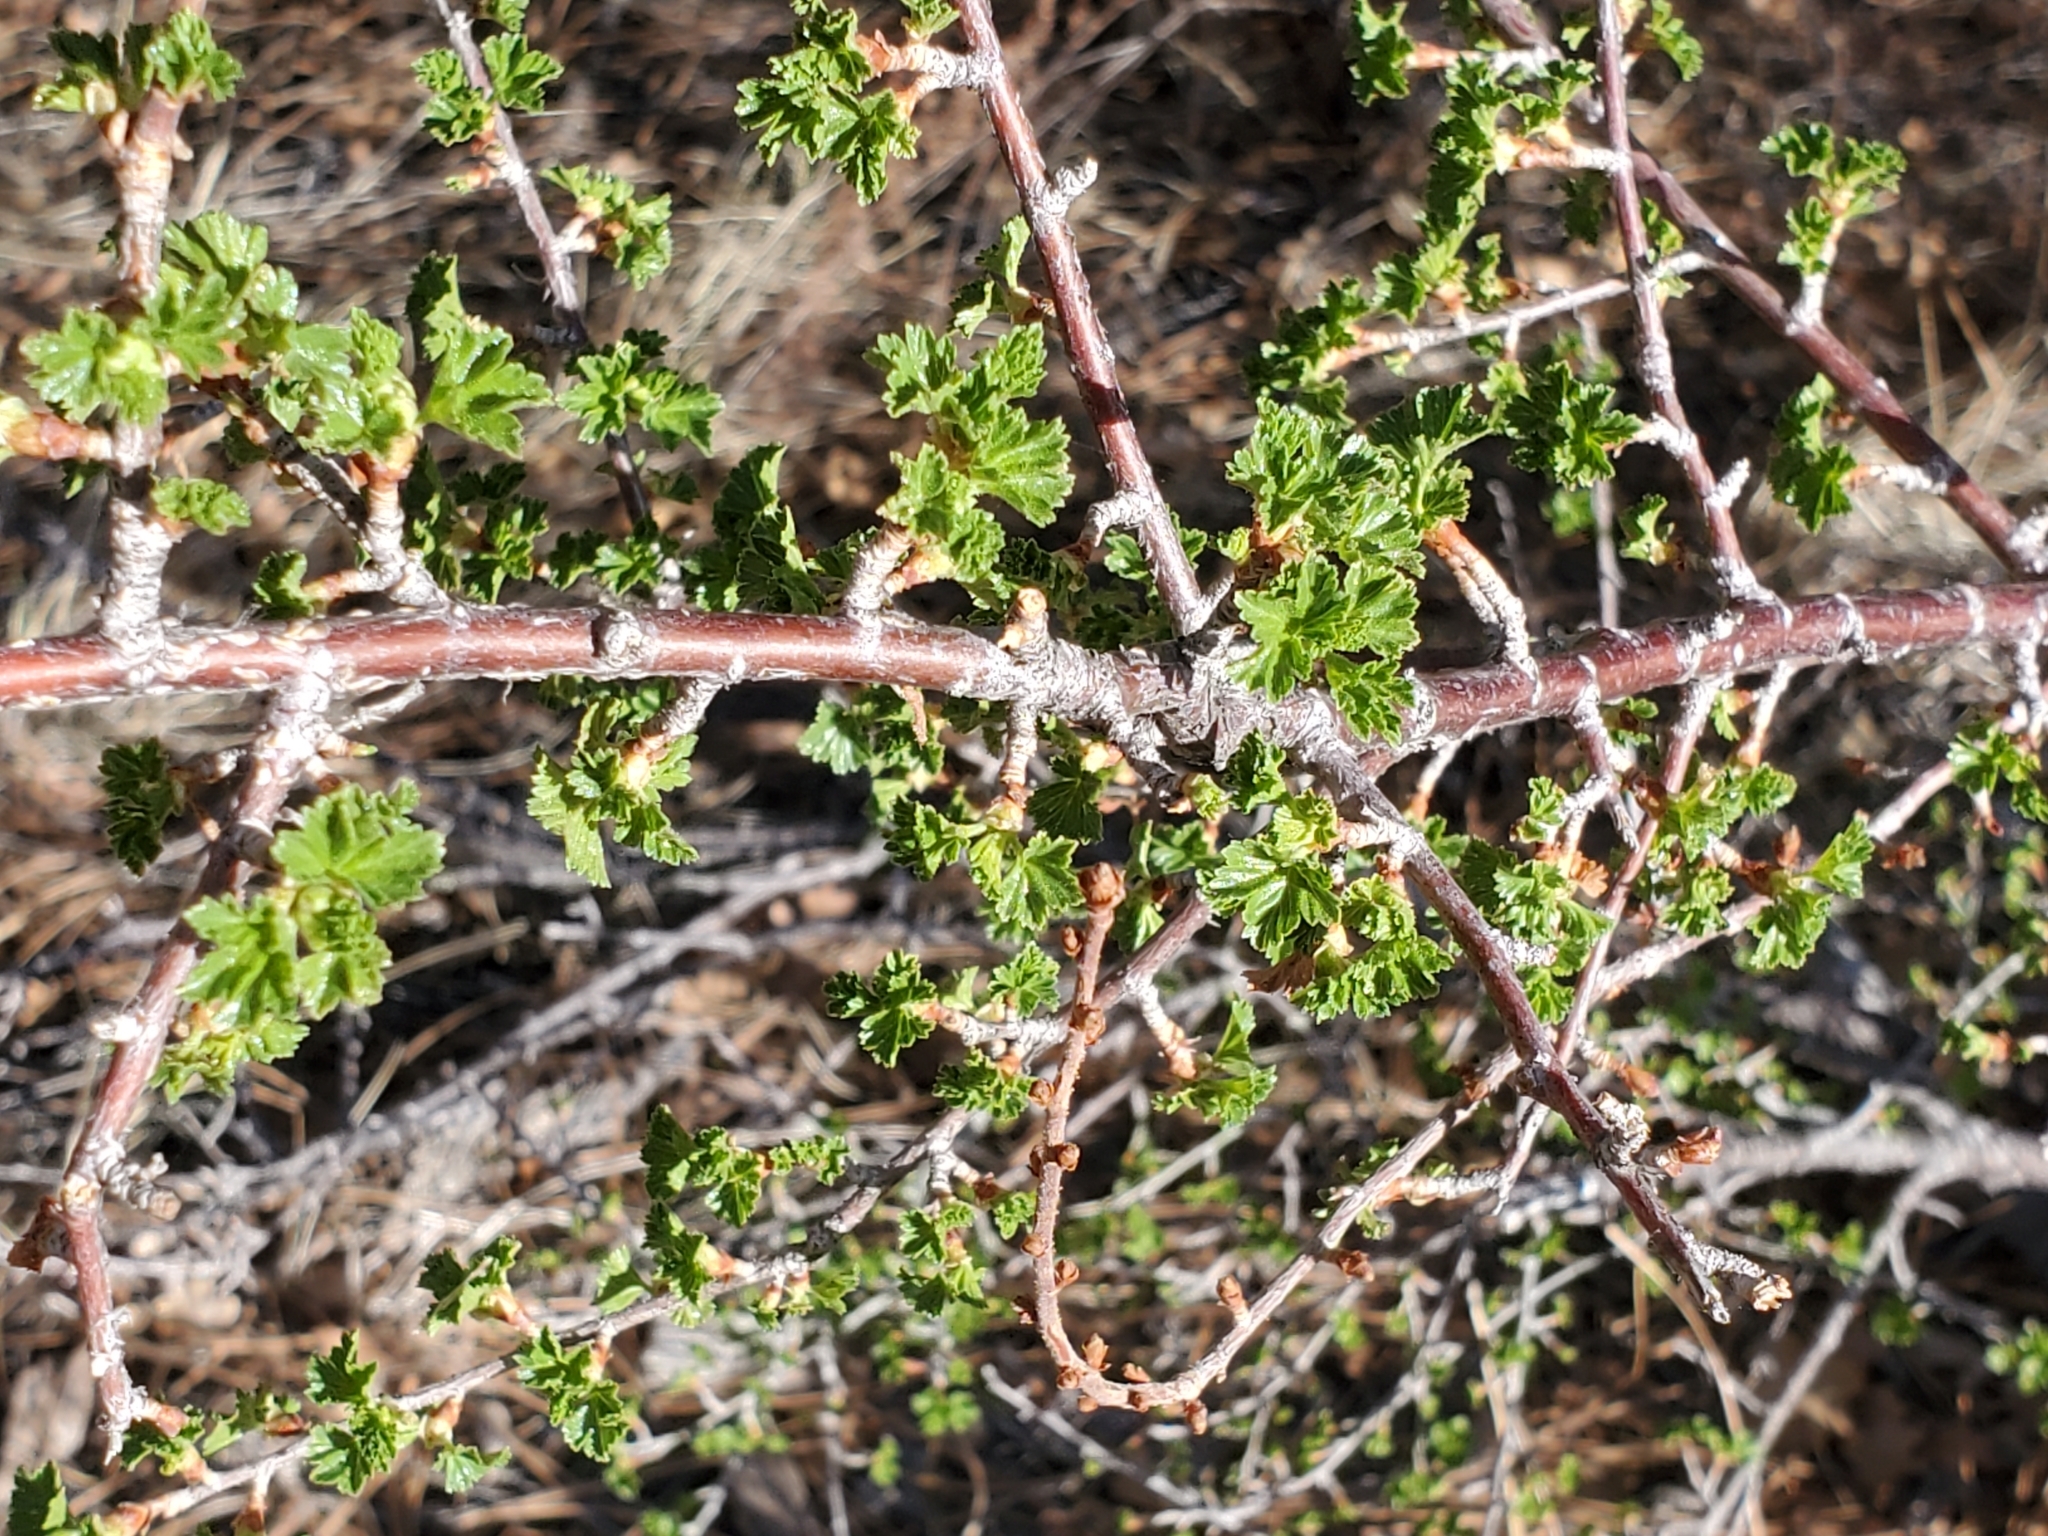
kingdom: Plantae
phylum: Tracheophyta
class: Magnoliopsida
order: Saxifragales
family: Grossulariaceae
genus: Ribes
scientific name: Ribes cereum
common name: Wax currant
